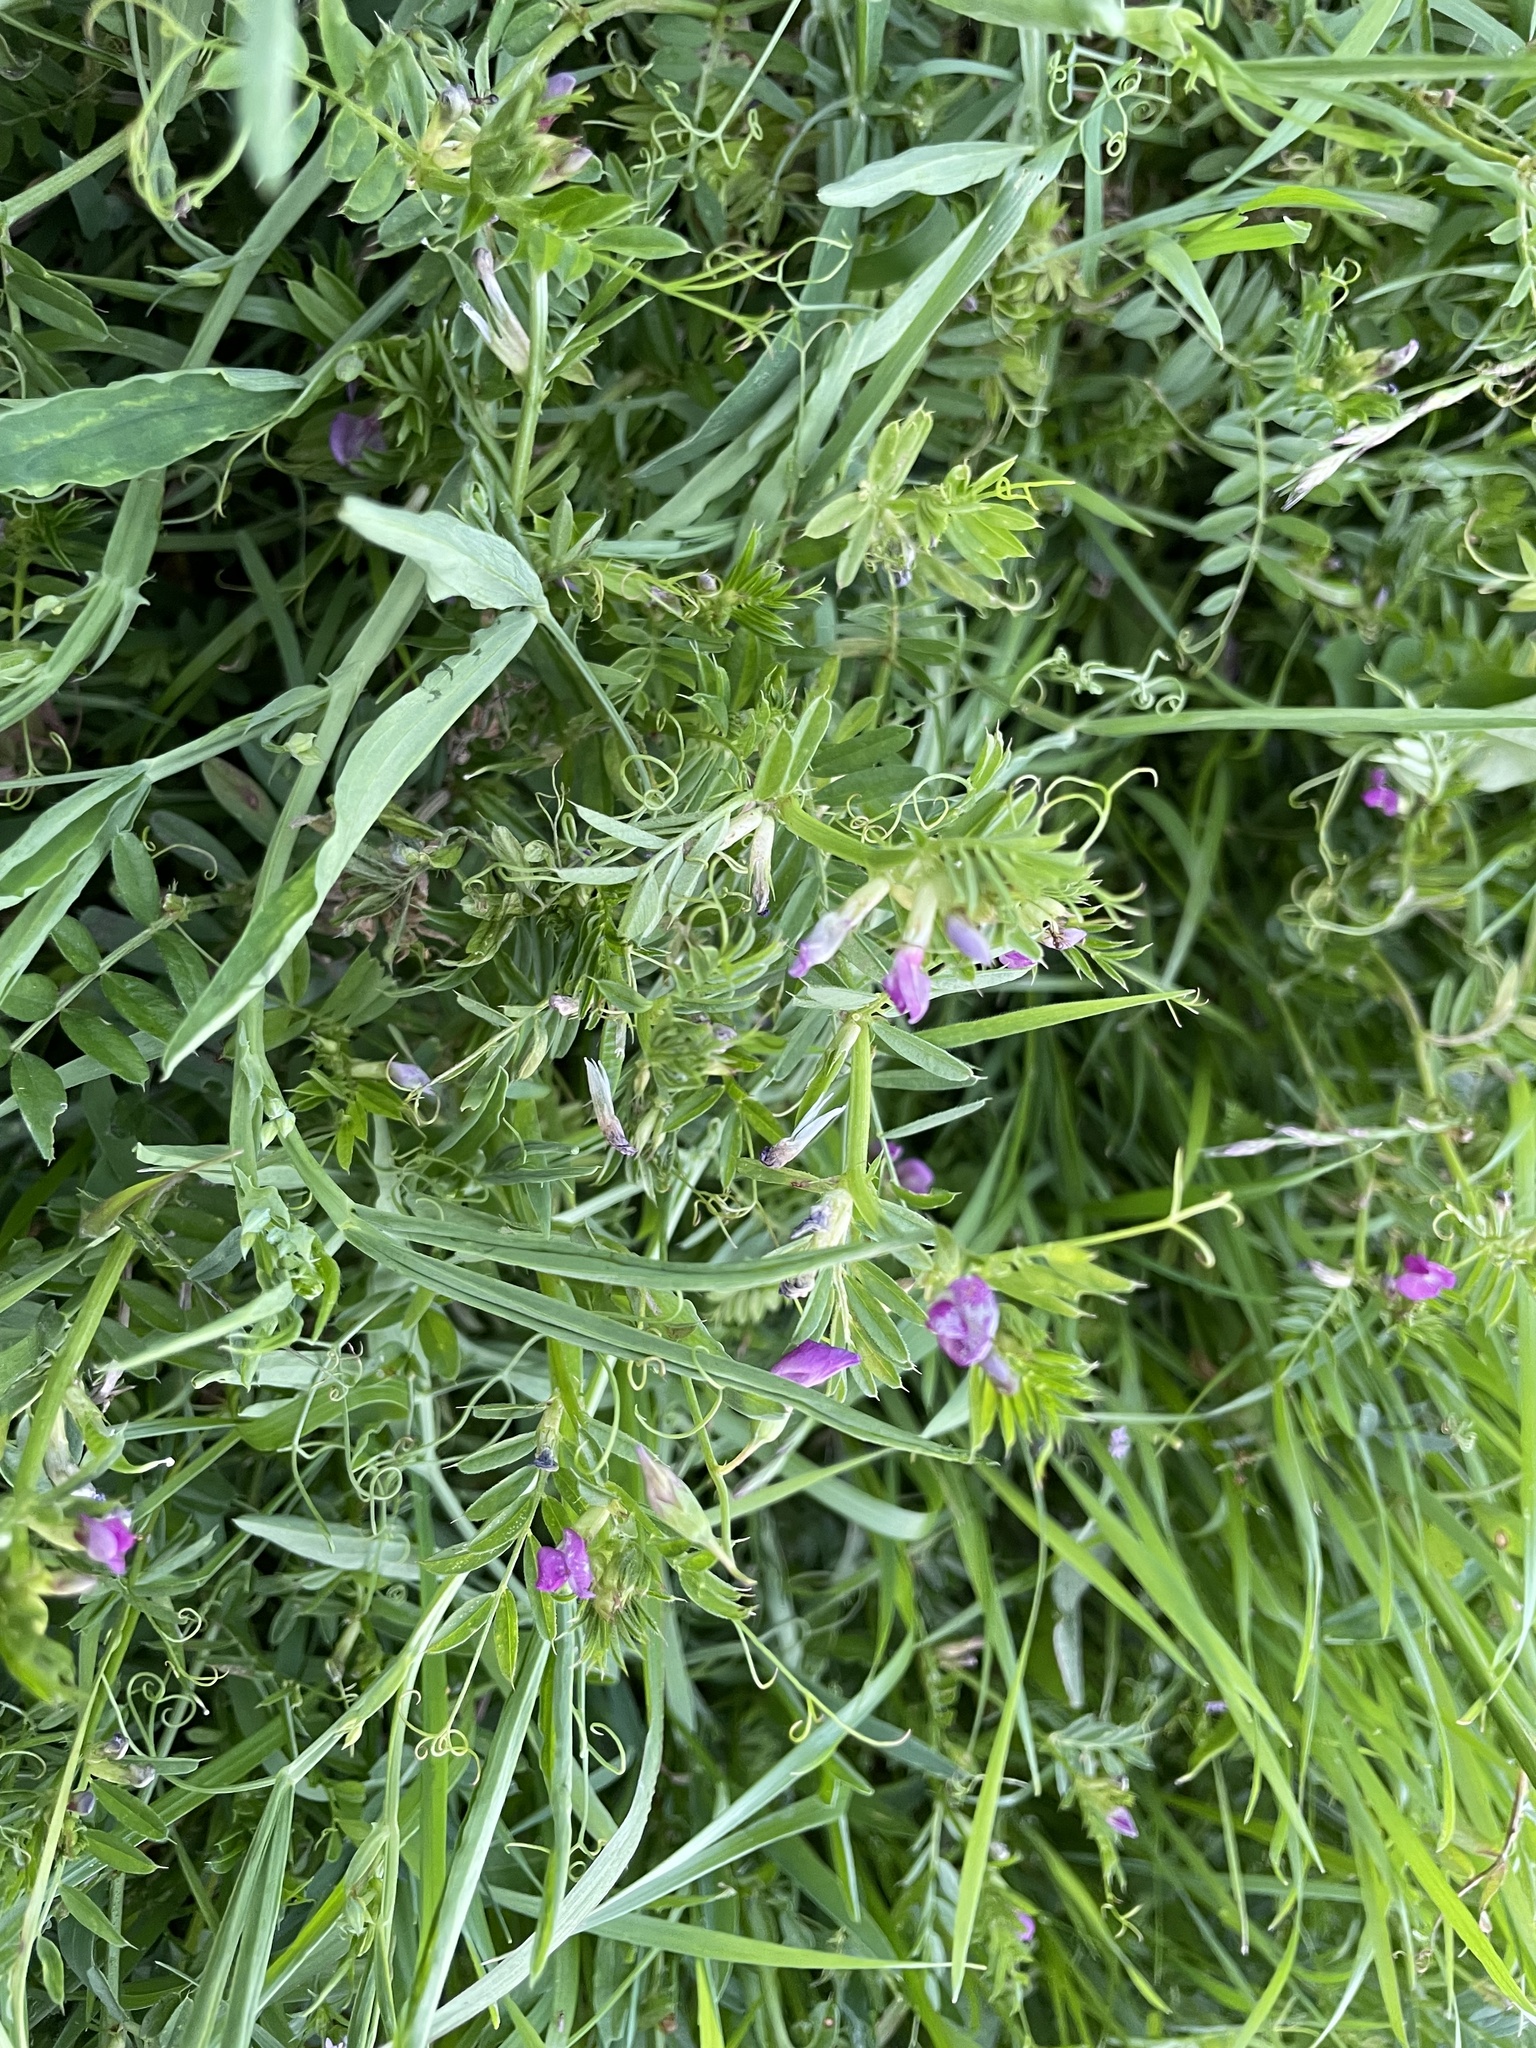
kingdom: Plantae
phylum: Tracheophyta
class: Magnoliopsida
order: Fabales
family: Fabaceae
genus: Vicia
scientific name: Vicia sativa
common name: Garden vetch
